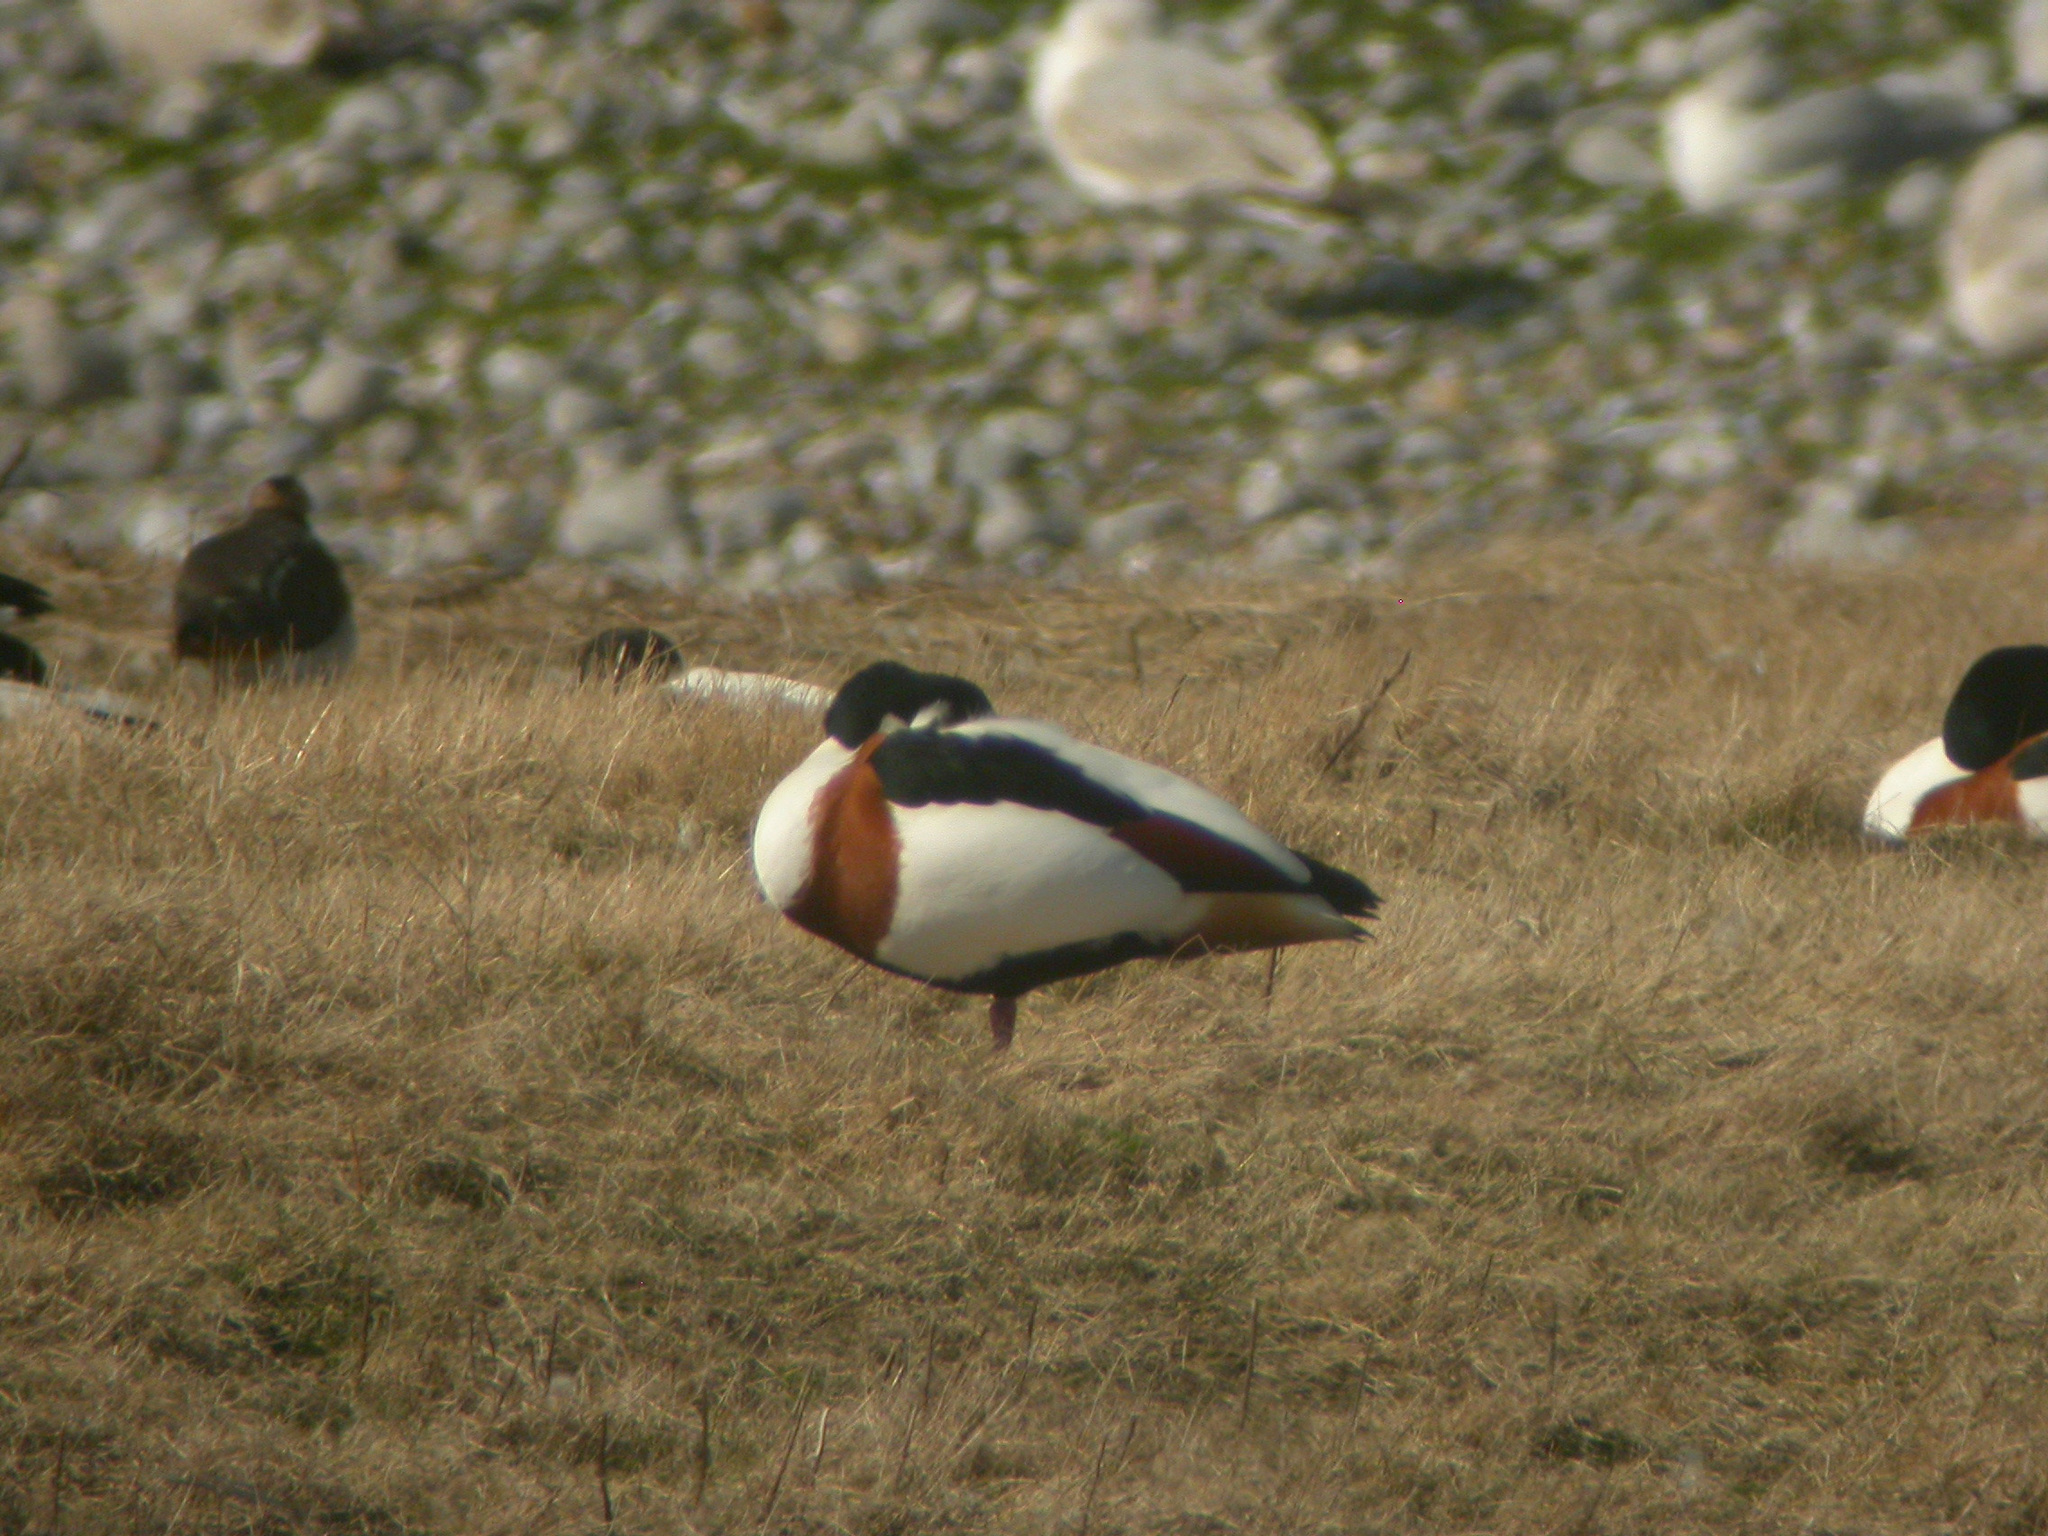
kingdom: Animalia
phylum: Chordata
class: Aves
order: Anseriformes
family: Anatidae
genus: Tadorna
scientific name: Tadorna tadorna
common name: Common shelduck
